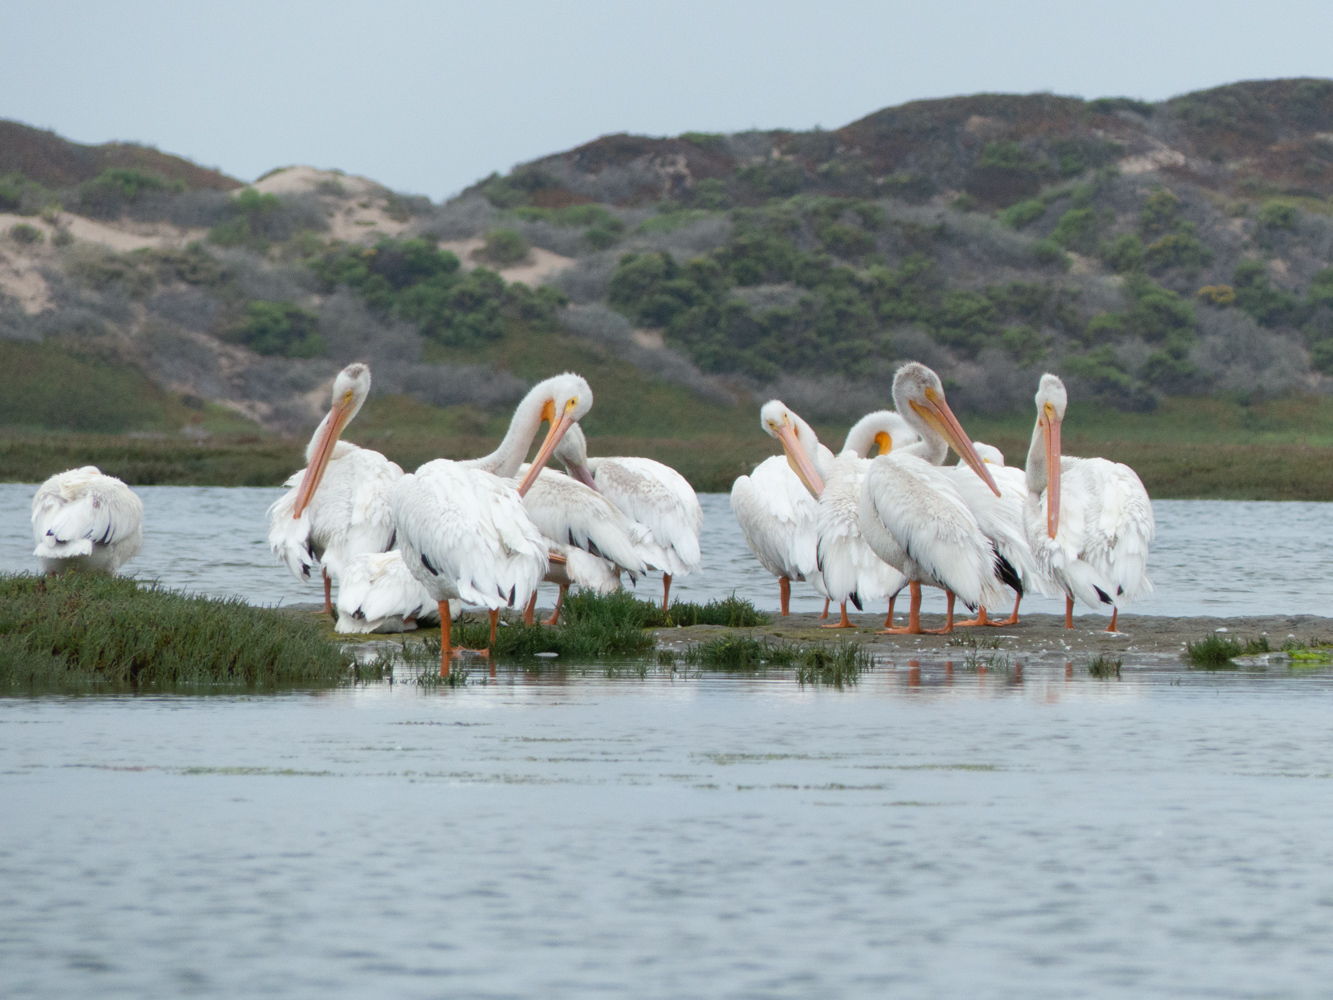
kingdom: Animalia
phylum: Chordata
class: Aves
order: Pelecaniformes
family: Pelecanidae
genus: Pelecanus
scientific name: Pelecanus erythrorhynchos
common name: American white pelican
